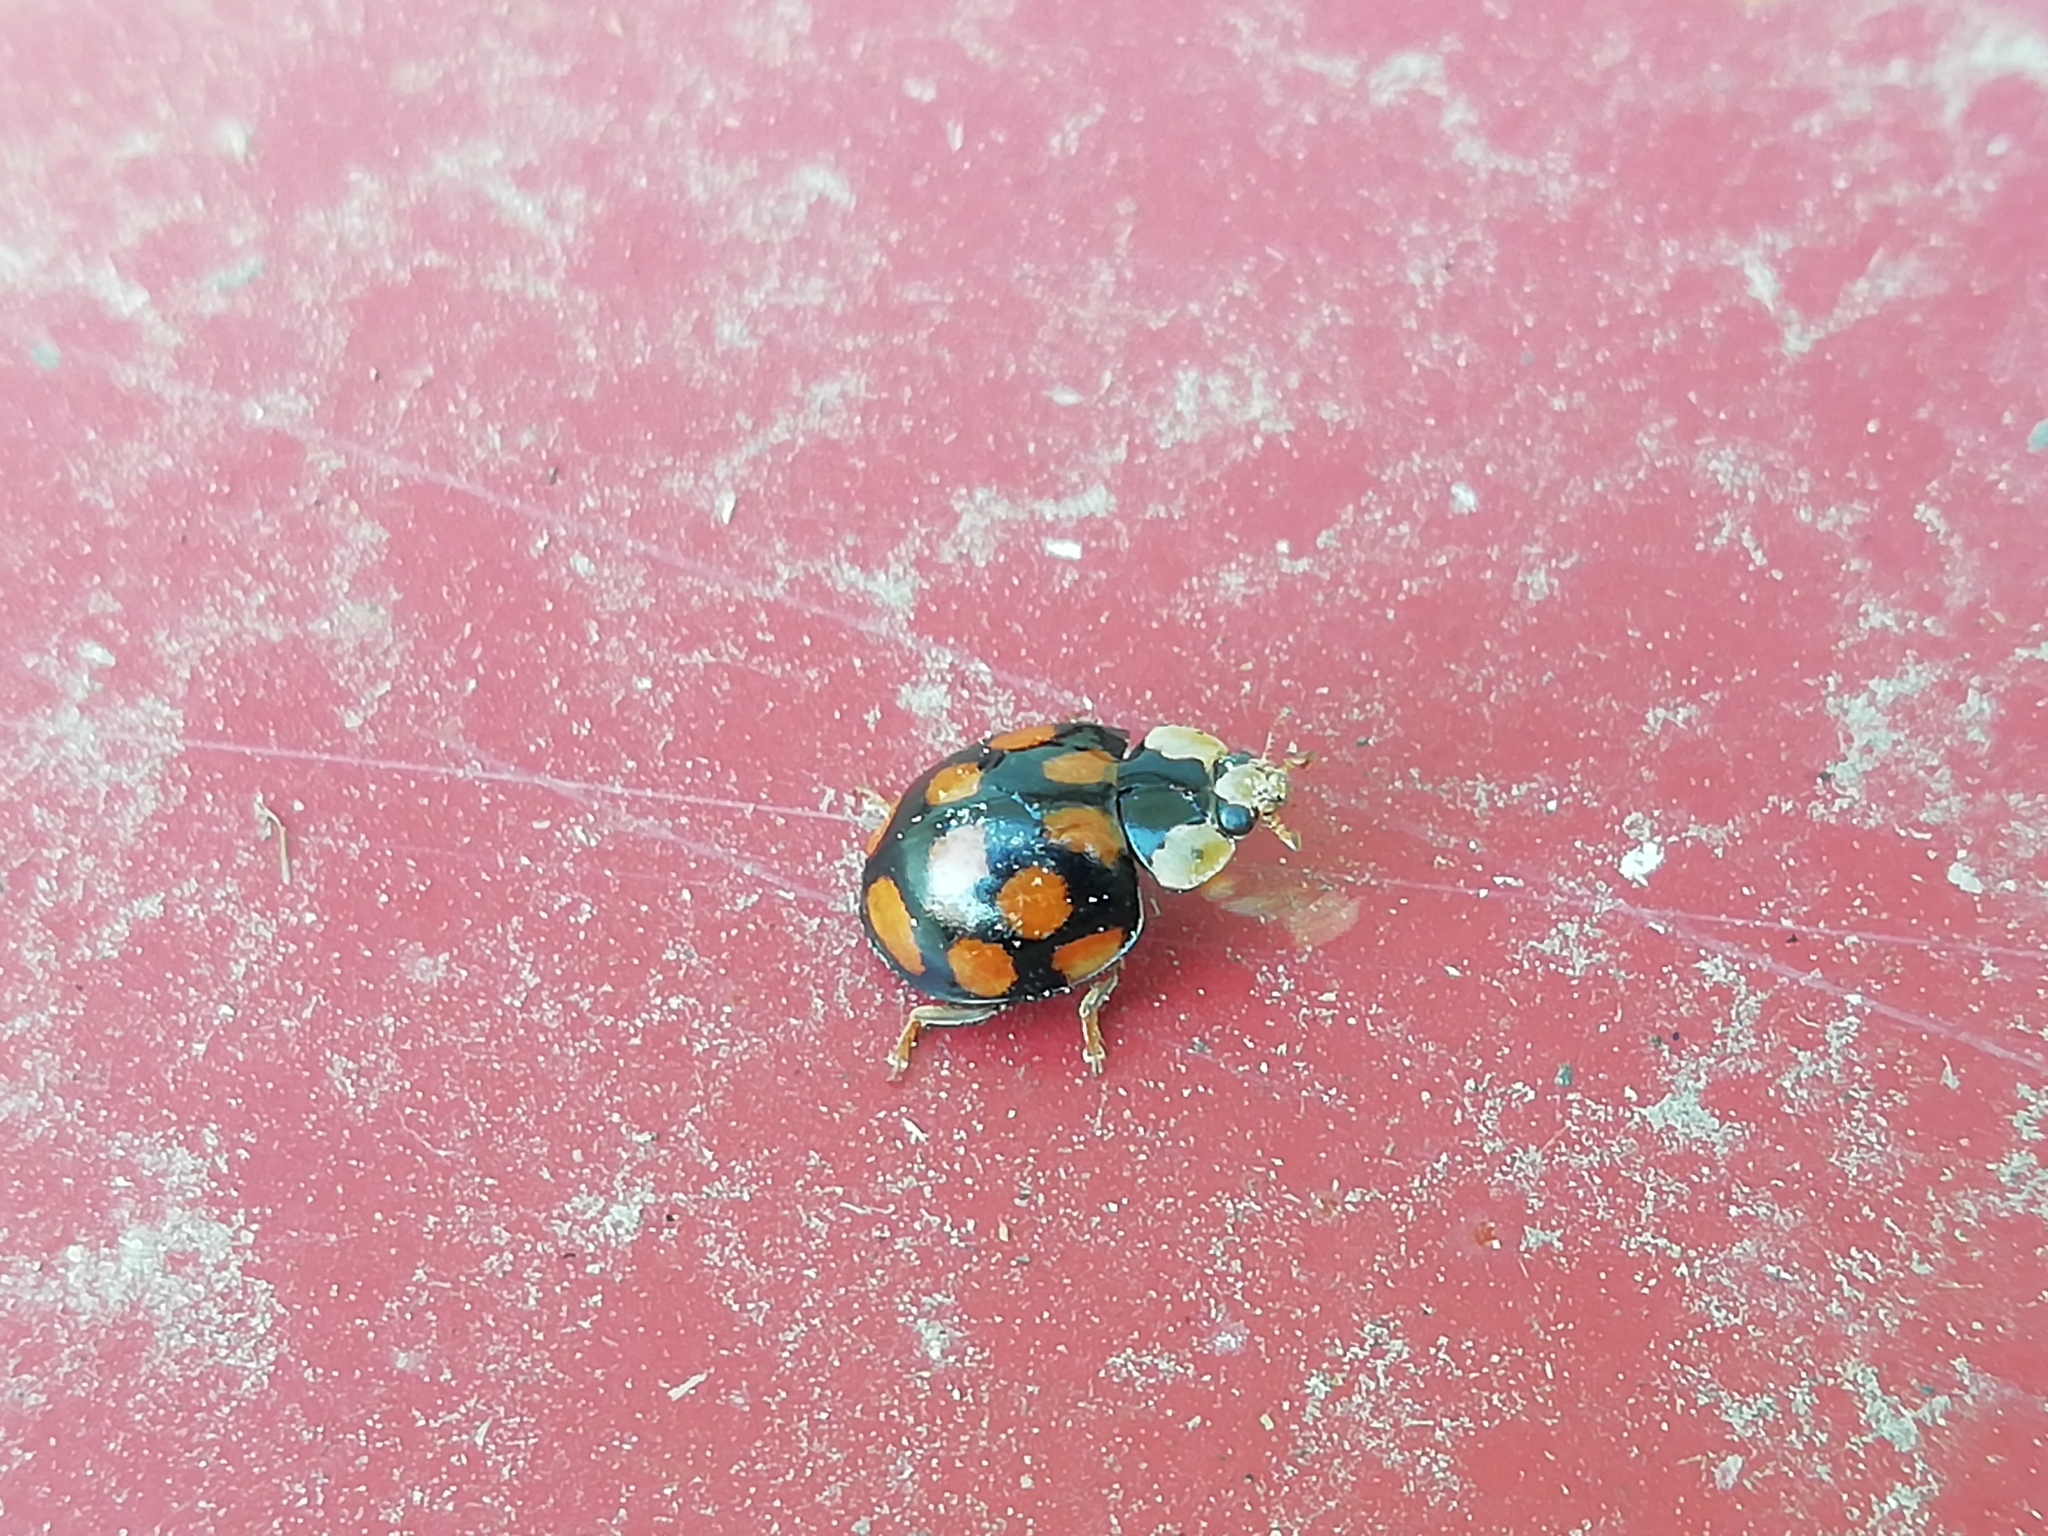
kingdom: Animalia
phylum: Arthropoda
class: Insecta
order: Coleoptera
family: Coccinellidae
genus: Harmonia
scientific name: Harmonia axyridis
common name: Harlequin ladybird
